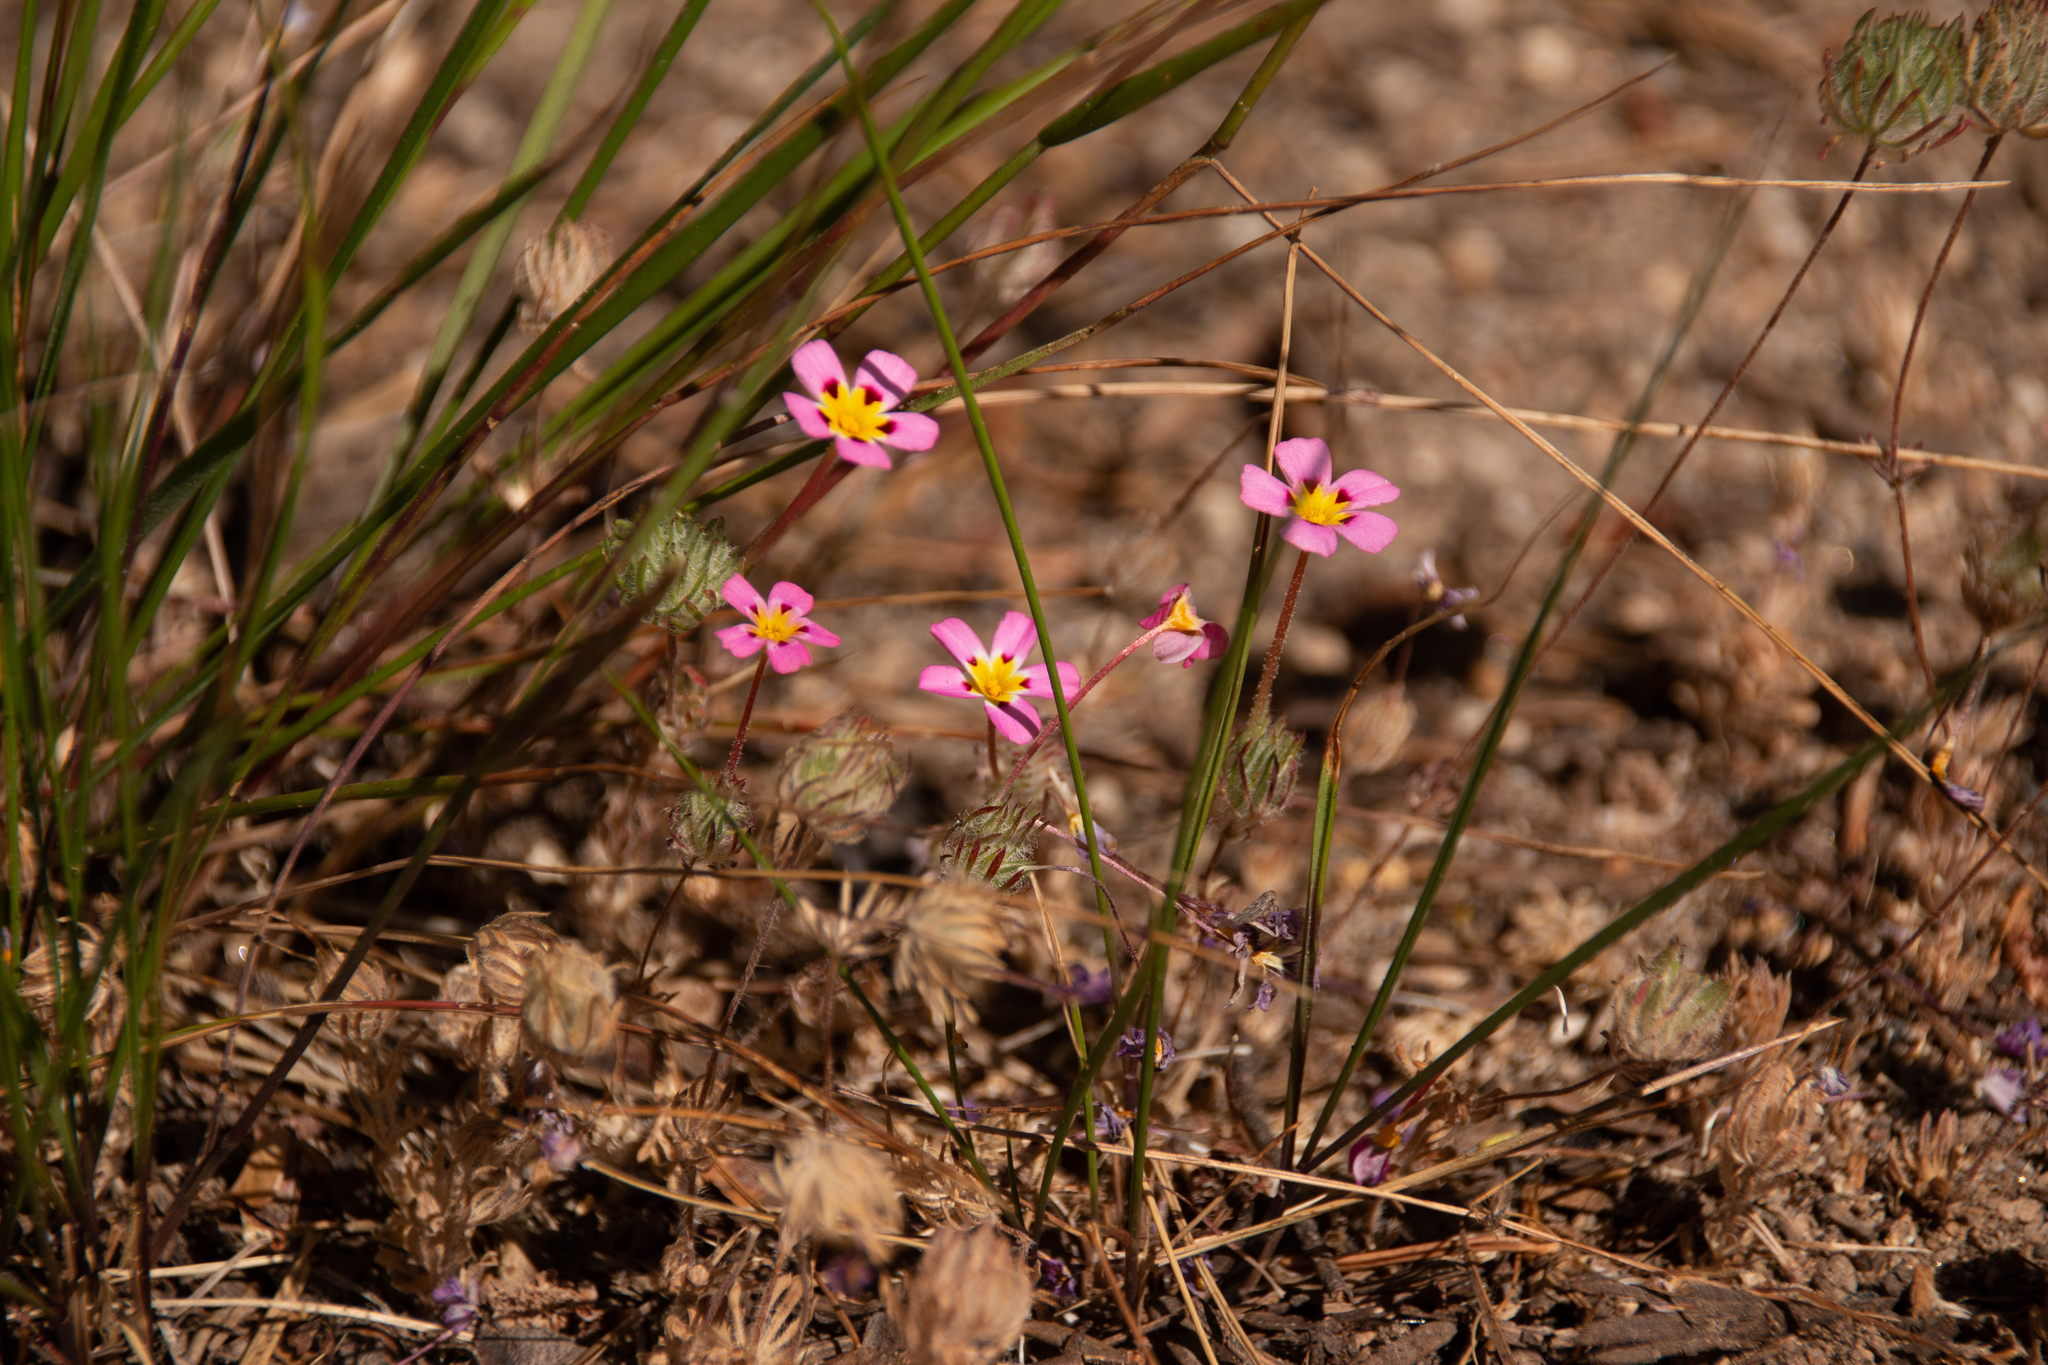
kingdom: Plantae
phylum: Tracheophyta
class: Magnoliopsida
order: Ericales
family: Polemoniaceae
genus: Leptosiphon
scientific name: Leptosiphon ciliatus
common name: Whiskerbrush
